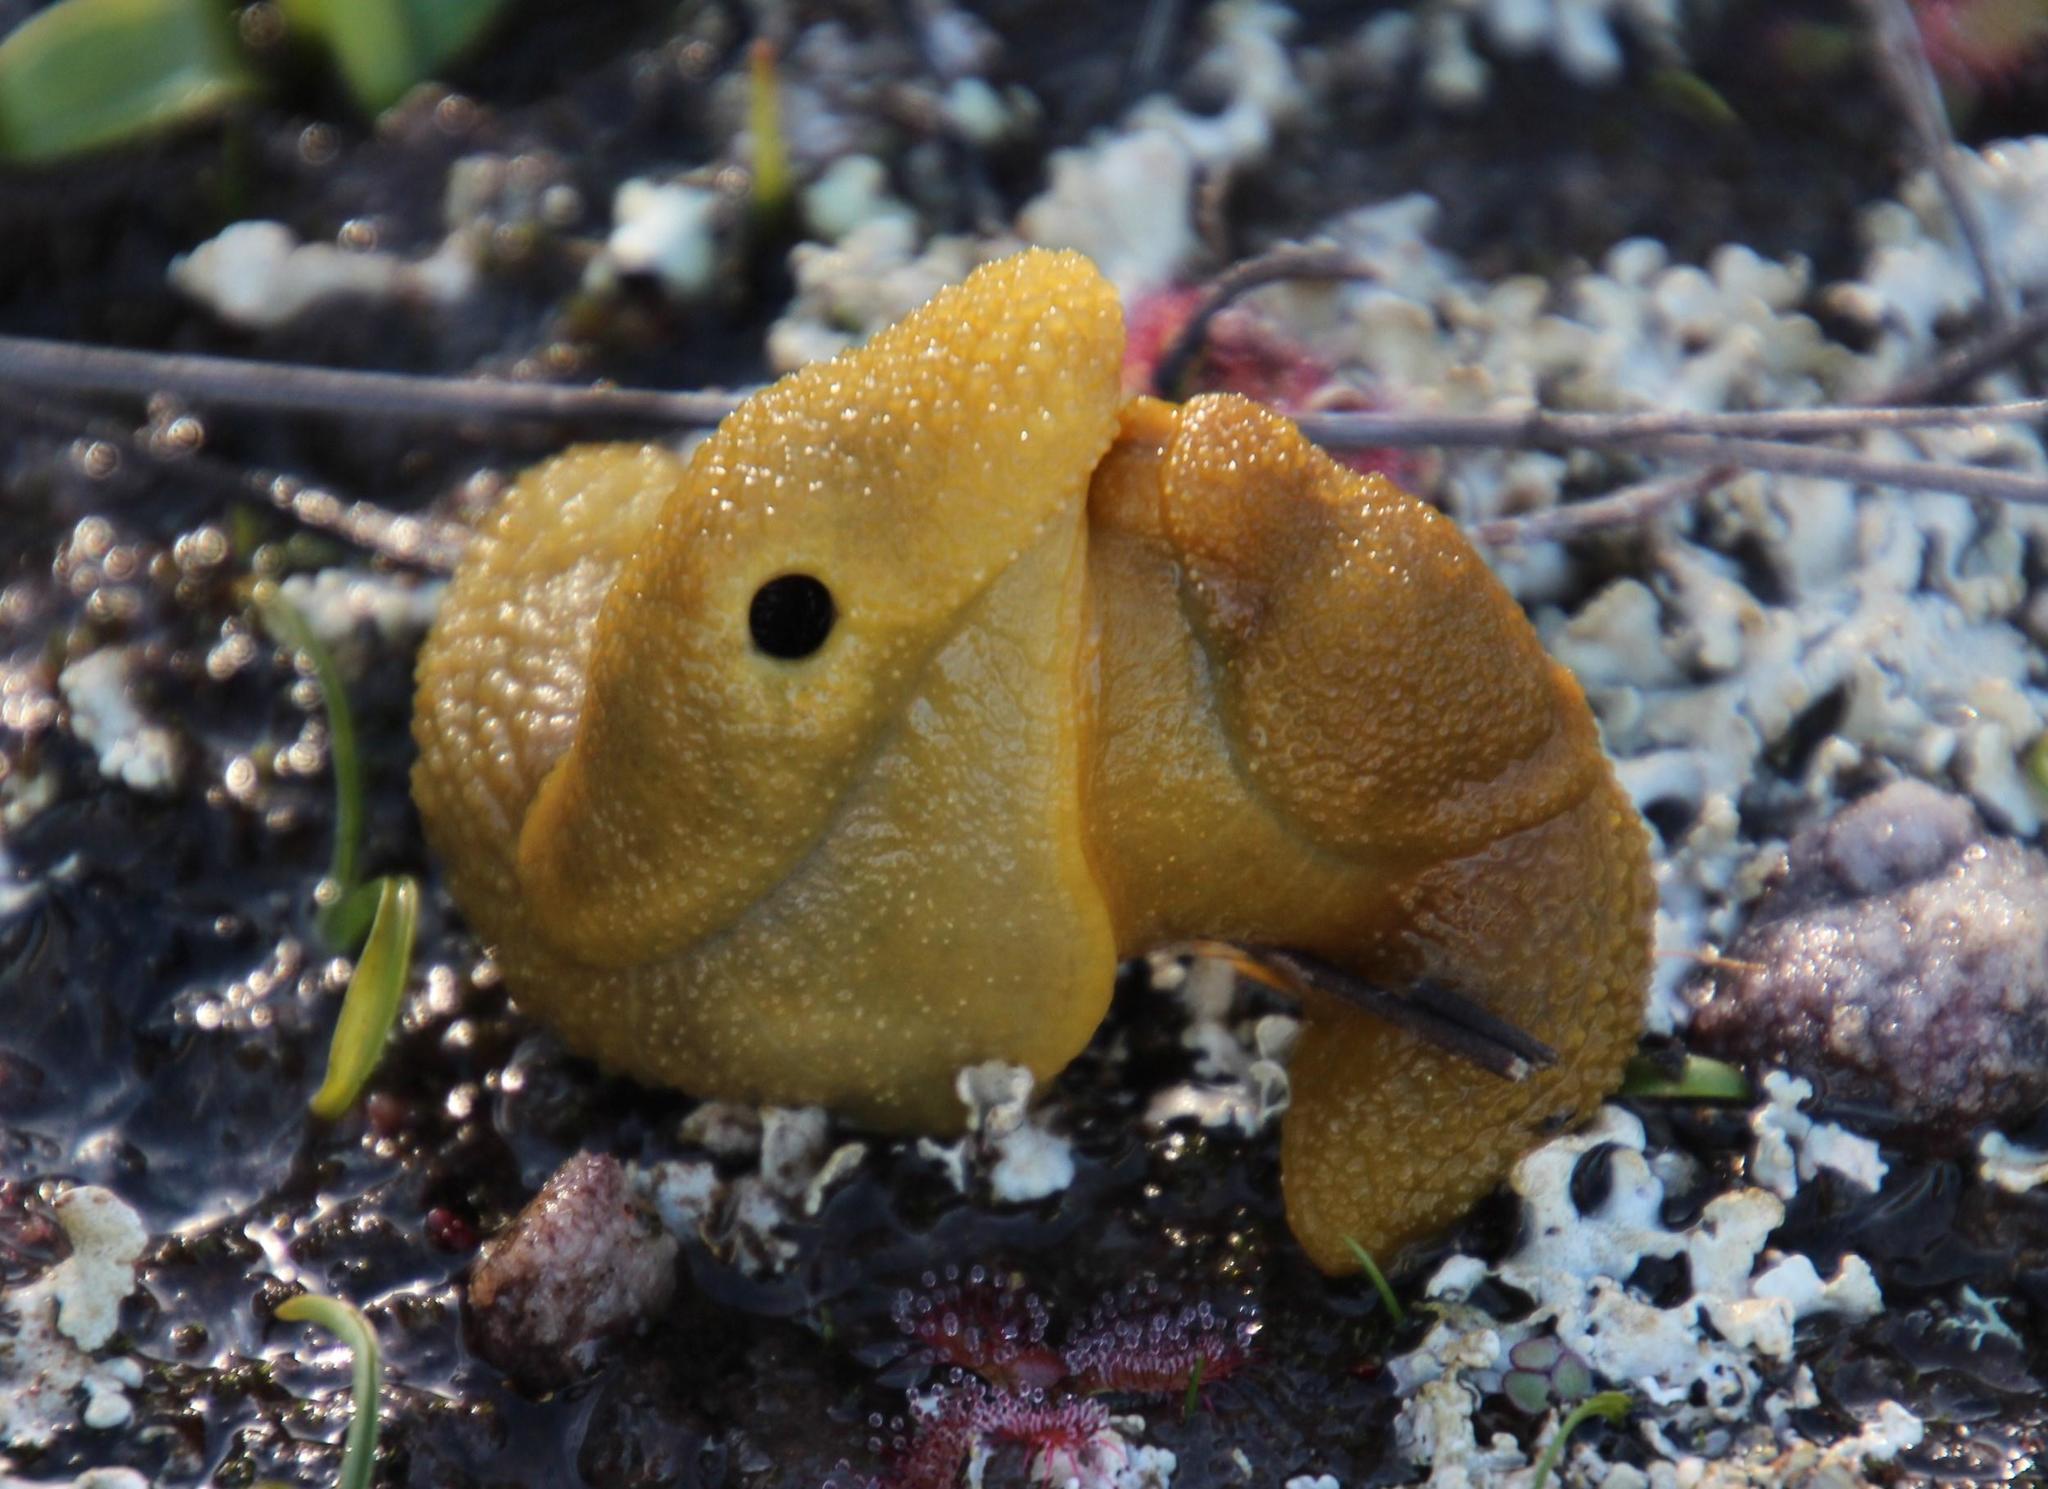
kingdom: Animalia
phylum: Mollusca
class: Gastropoda
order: Stylommatophora
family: Oopeltidae
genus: Oopelta
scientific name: Oopelta granulosa
